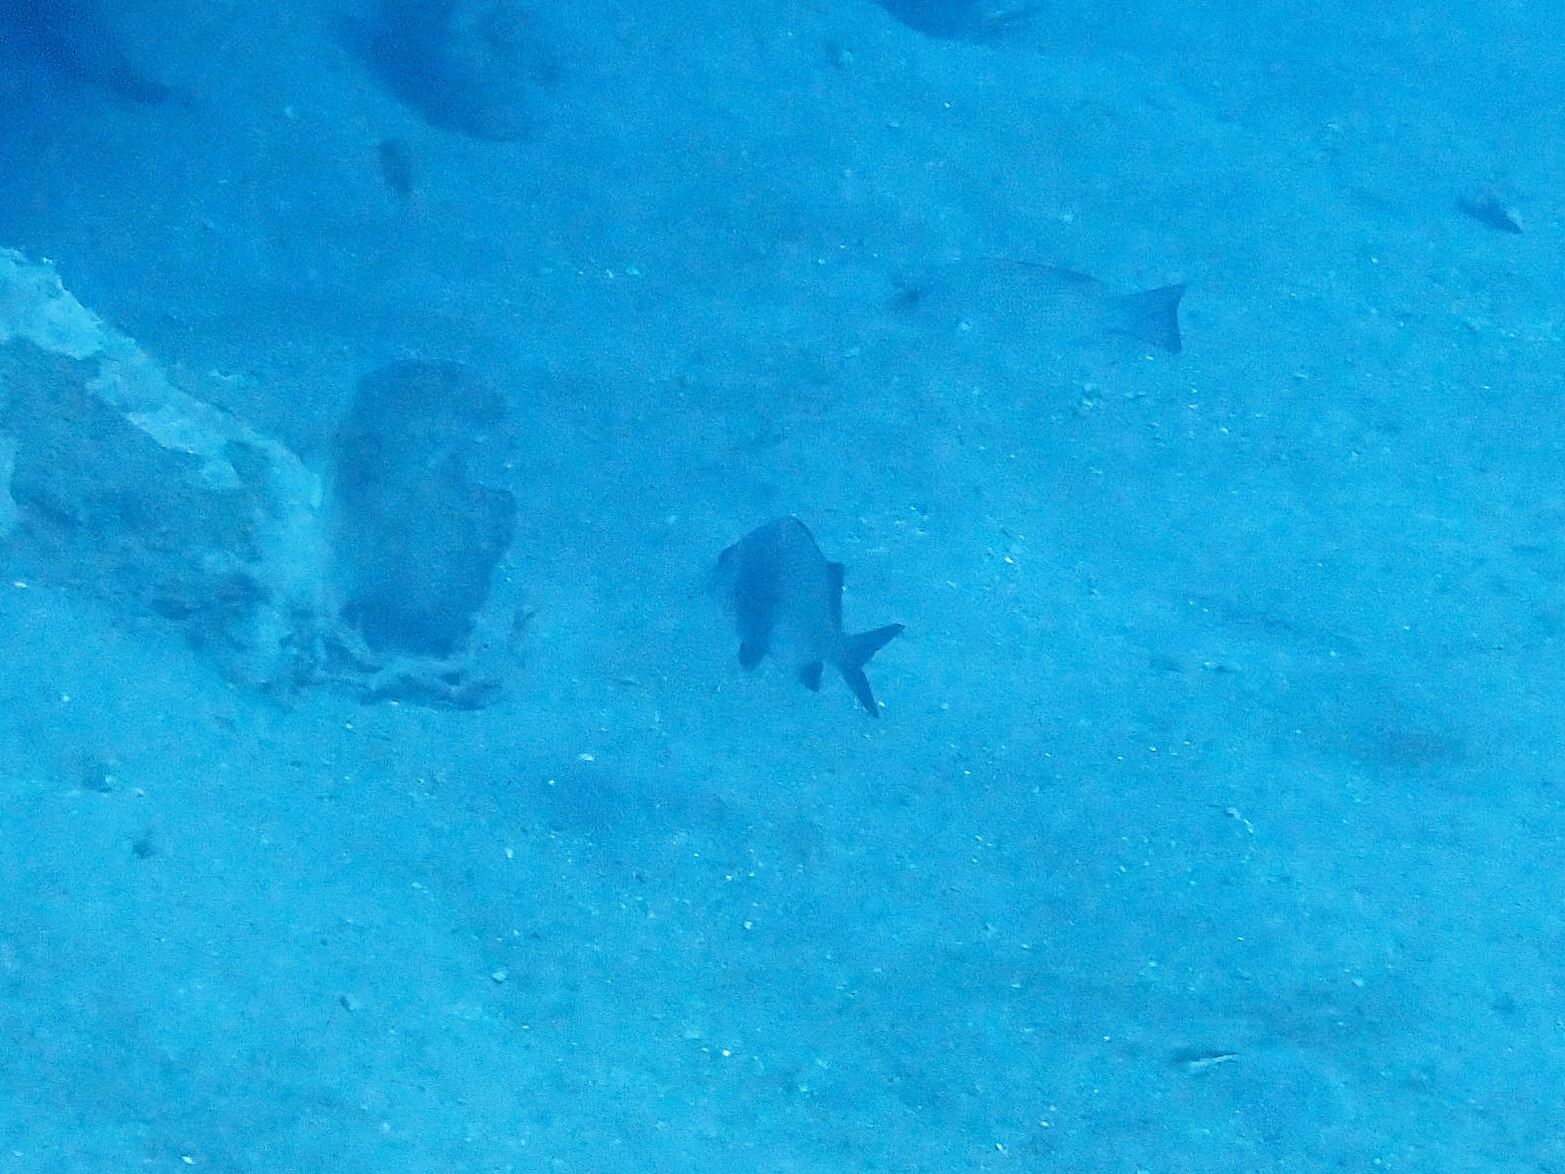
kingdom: Animalia
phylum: Chordata
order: Perciformes
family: Haemulidae
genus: Anisotremus
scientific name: Anisotremus surinamensis
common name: Black margate
